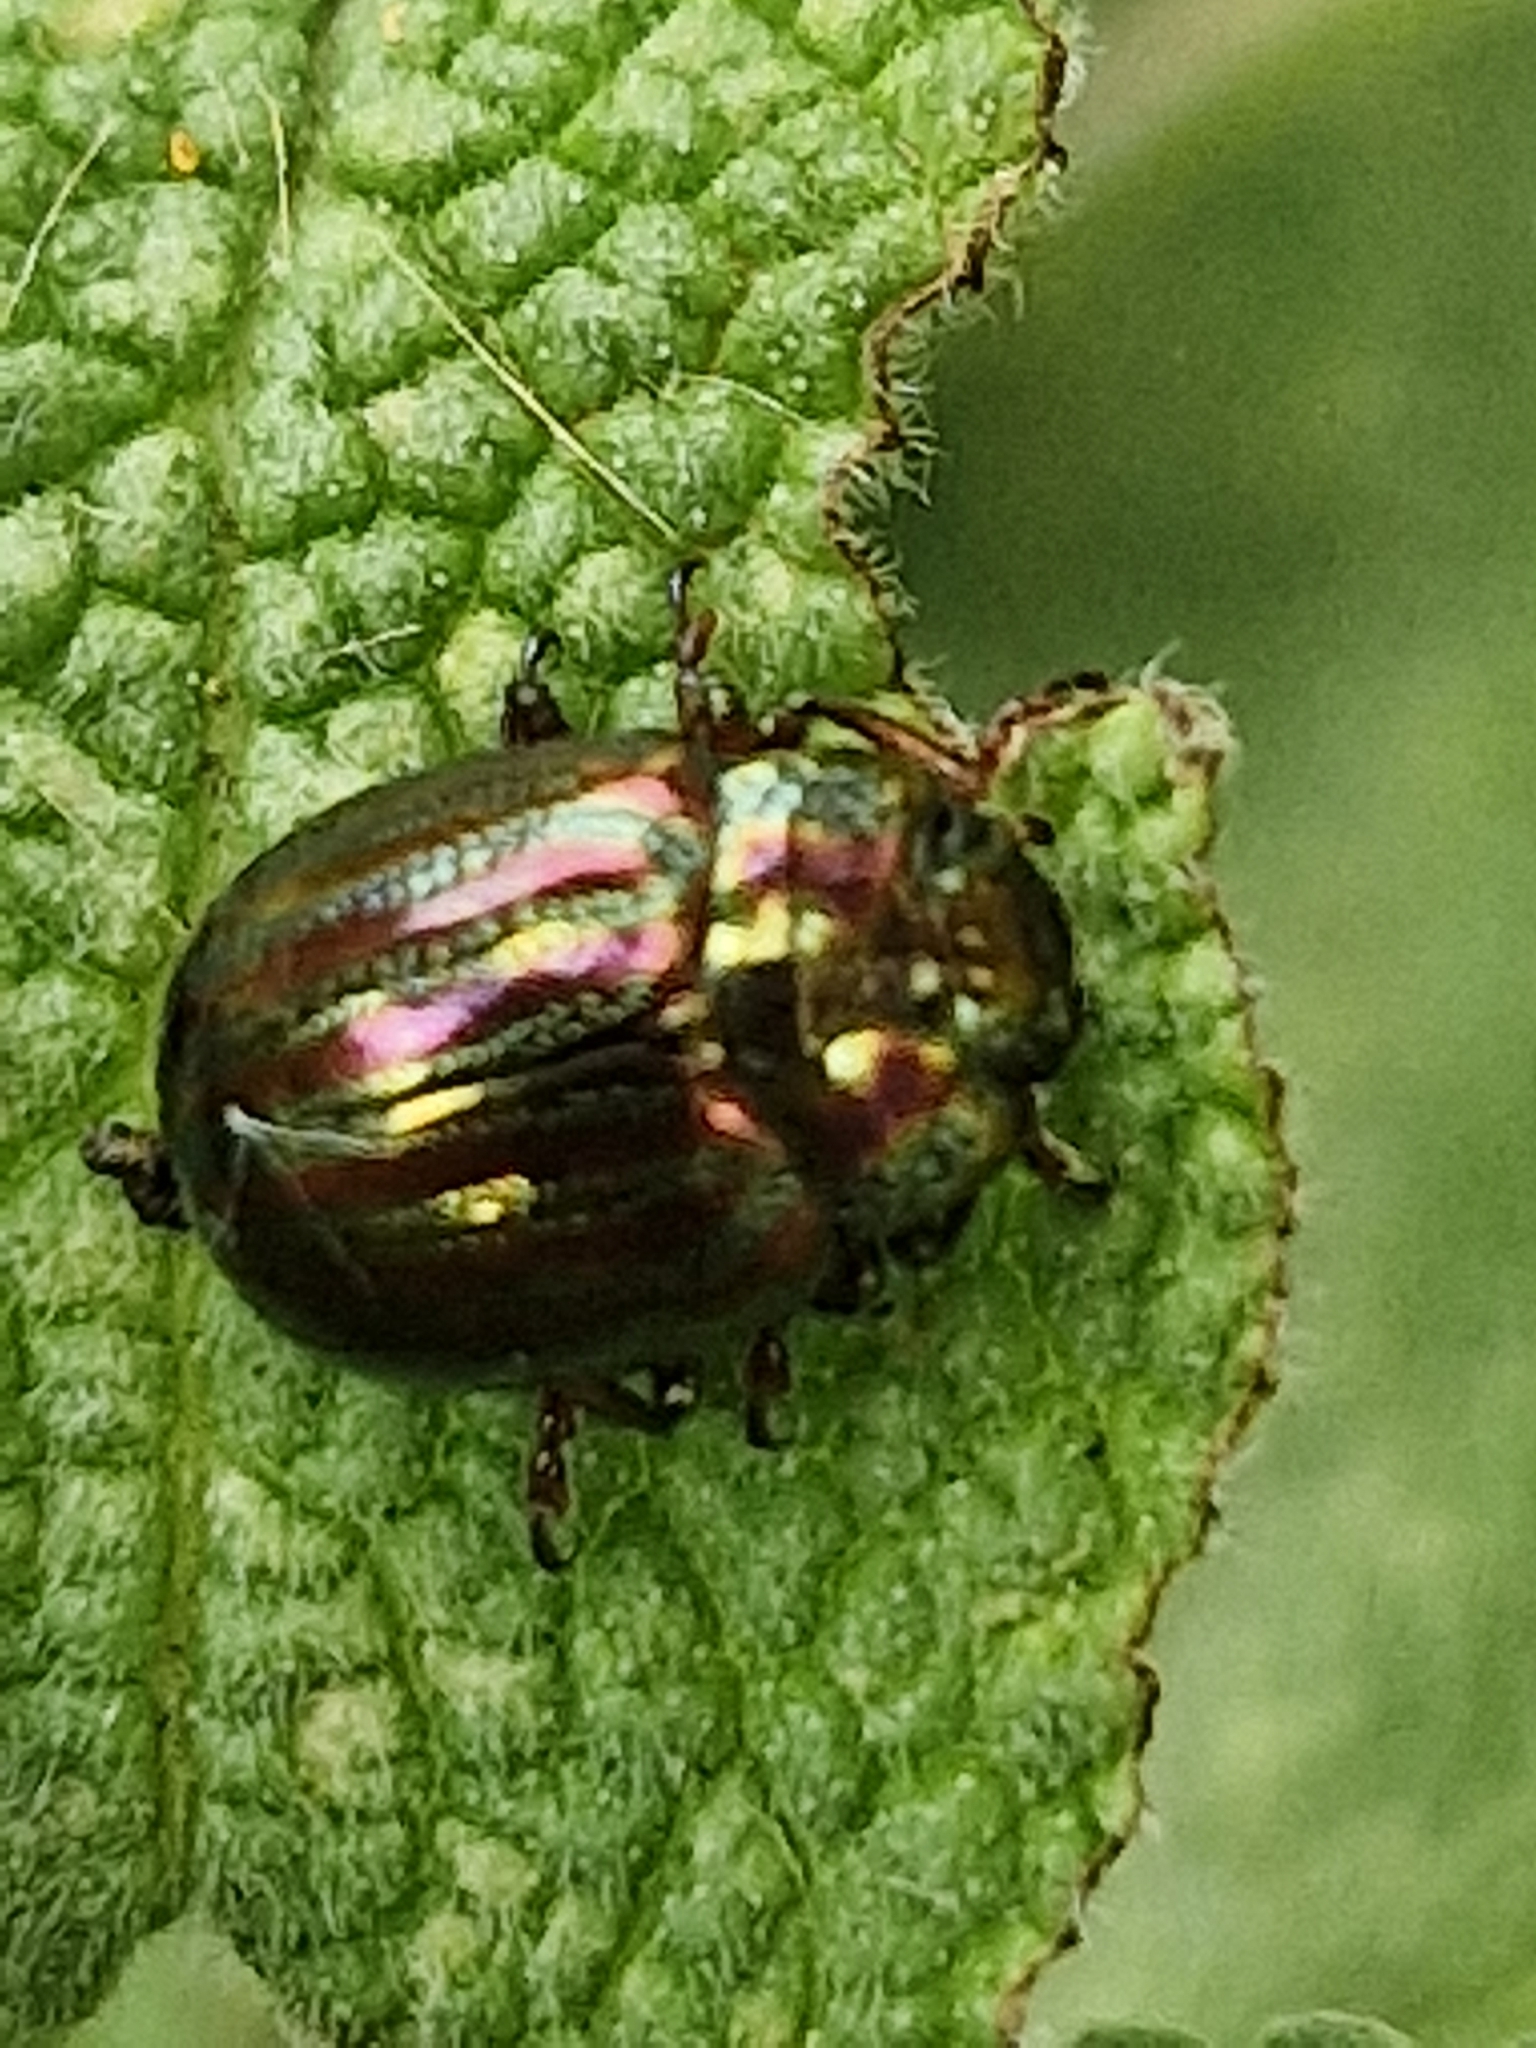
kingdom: Animalia
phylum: Arthropoda
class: Insecta
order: Coleoptera
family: Chrysomelidae
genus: Chrysolina
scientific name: Chrysolina americana
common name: Rosemary beetle
